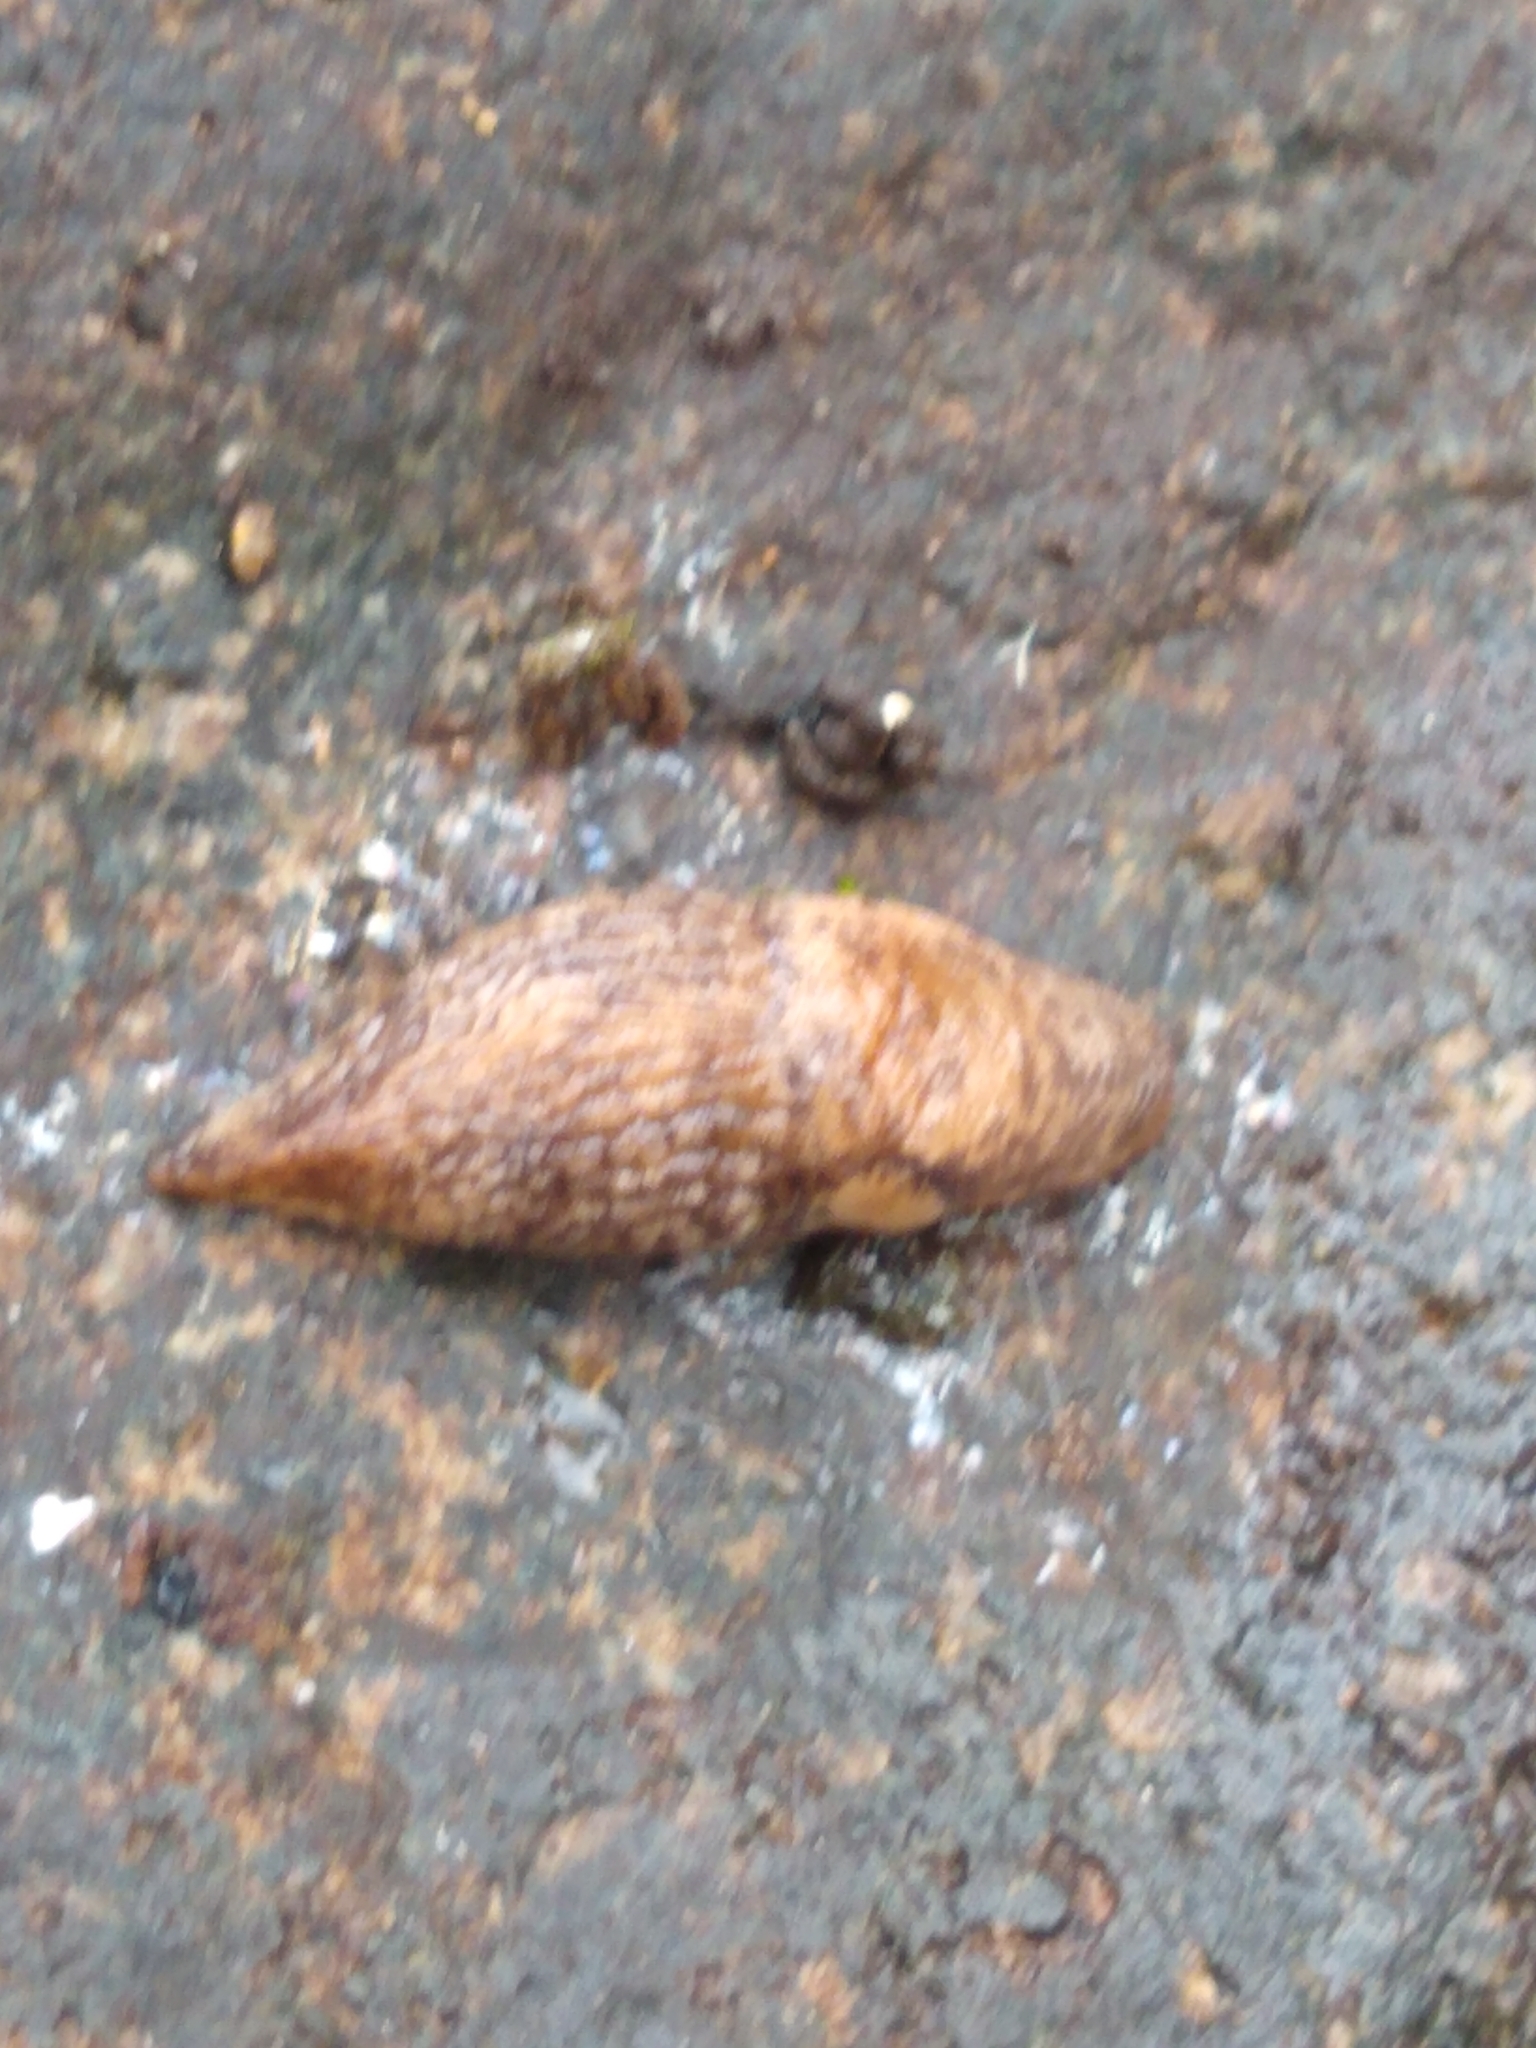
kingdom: Animalia
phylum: Mollusca
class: Gastropoda
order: Stylommatophora
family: Agriolimacidae
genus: Deroceras
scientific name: Deroceras reticulatum
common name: Gray field slug
